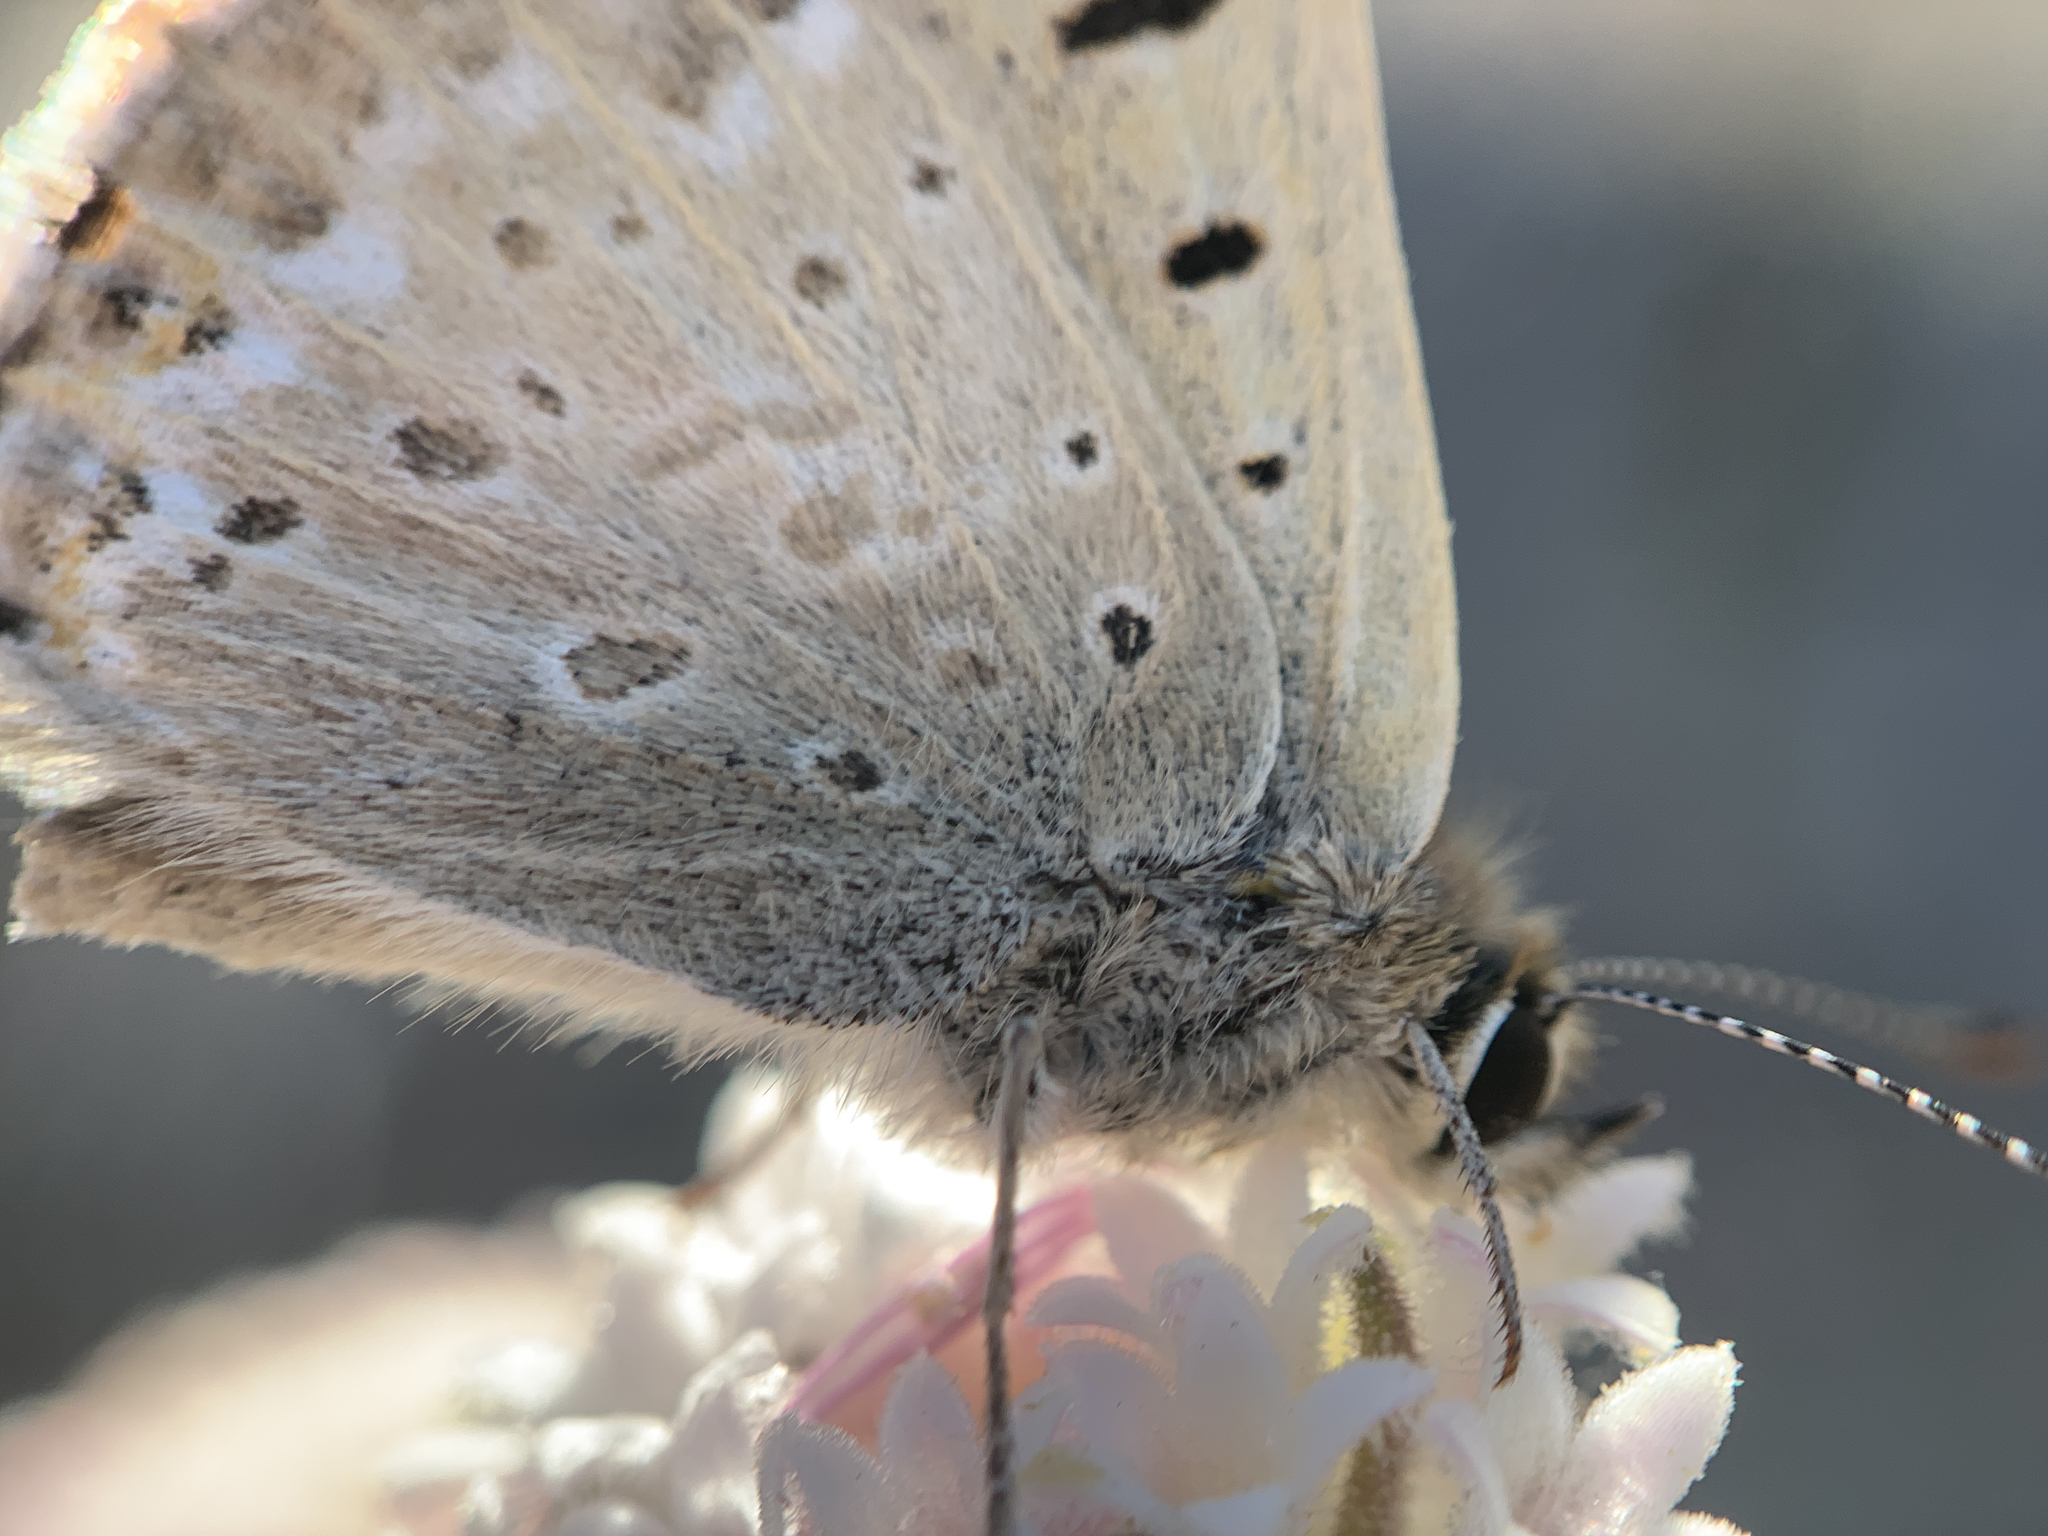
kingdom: Animalia
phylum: Arthropoda
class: Insecta
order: Lepidoptera
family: Lycaenidae
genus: Tharsalea
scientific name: Tharsalea editha
